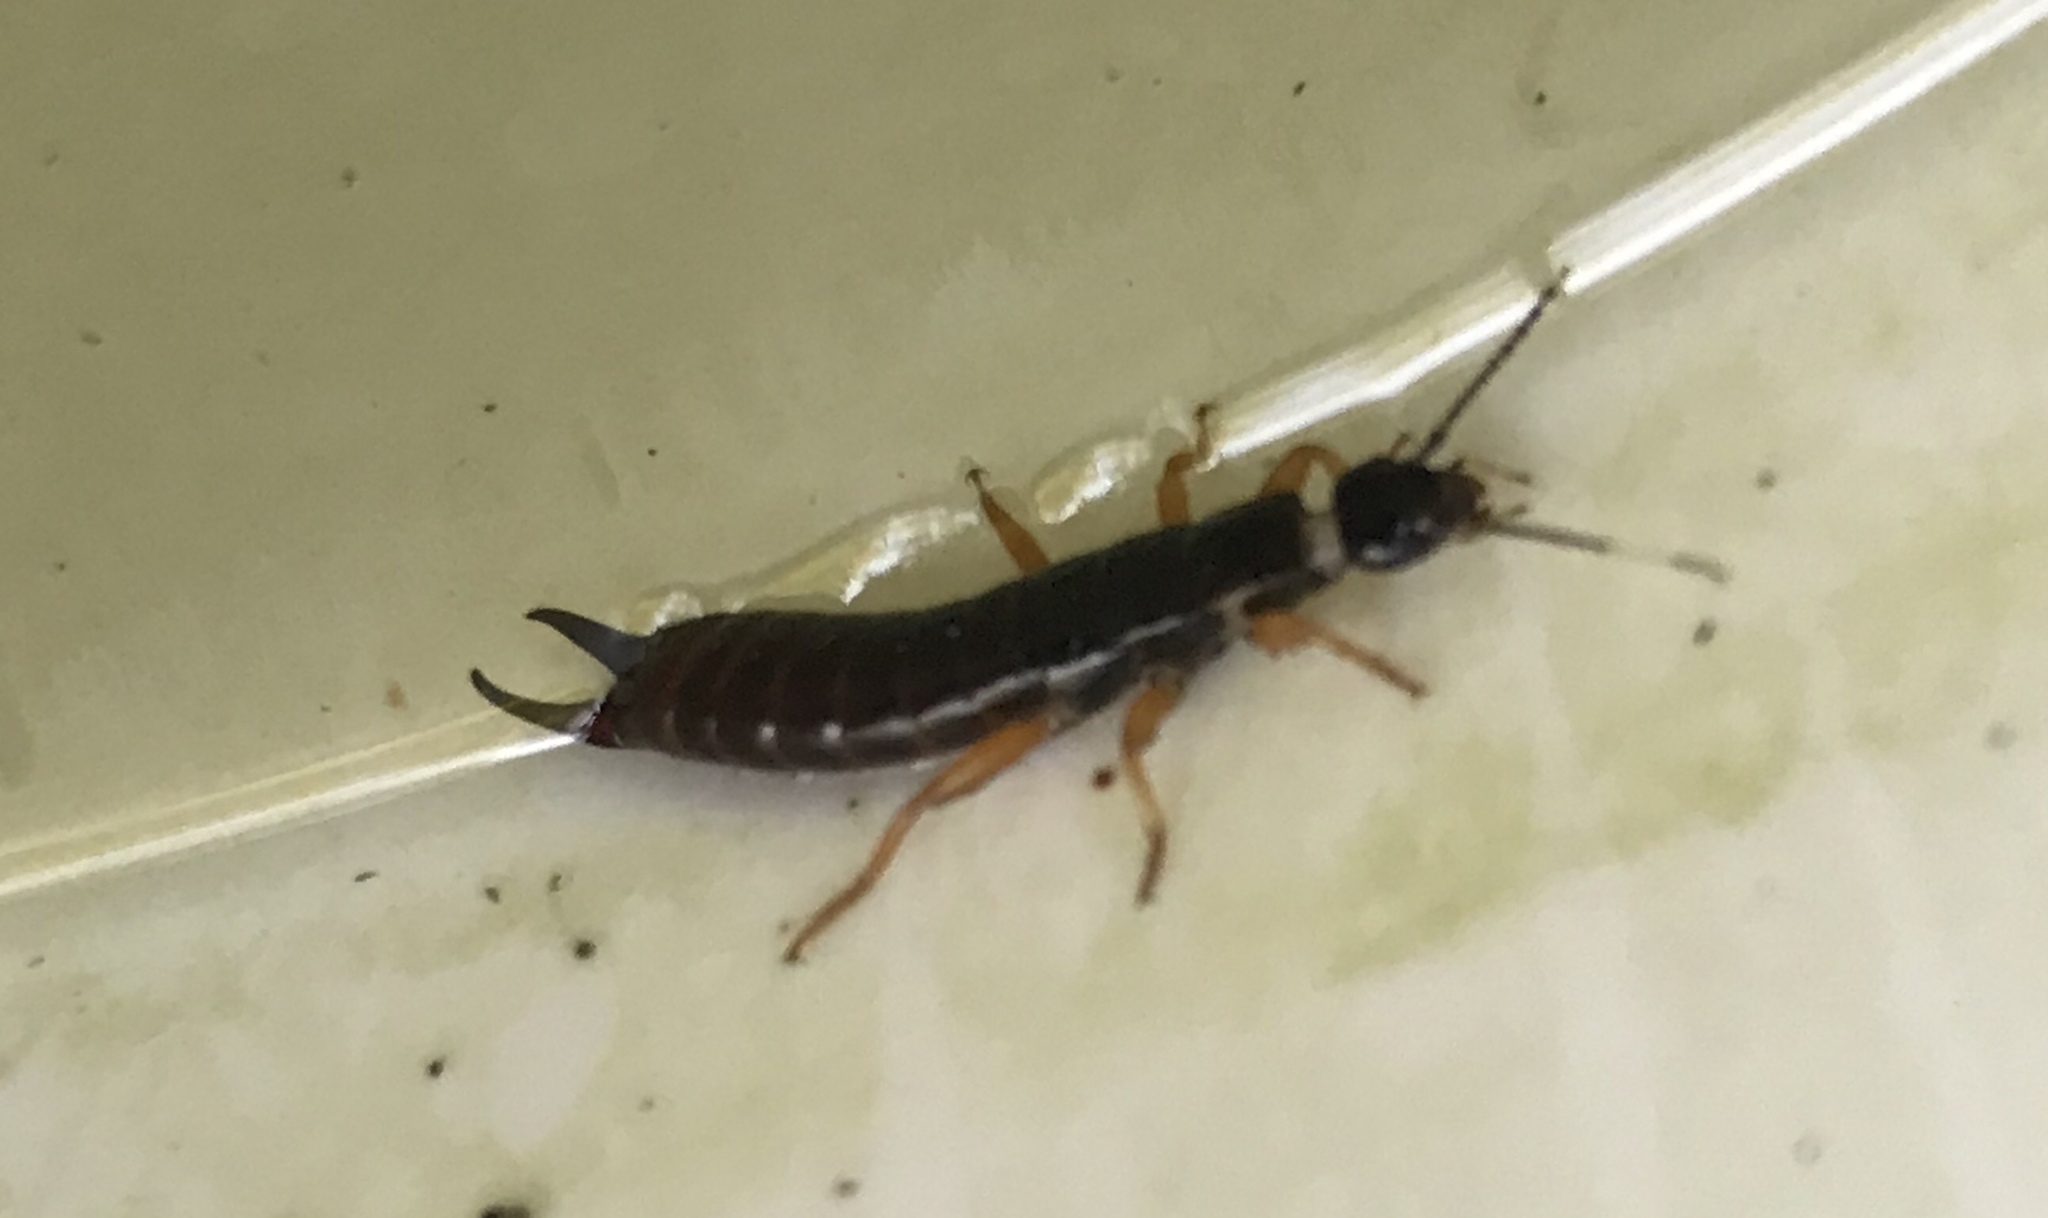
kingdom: Animalia
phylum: Arthropoda
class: Insecta
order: Dermaptera
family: Anisolabididae
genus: Euborellia
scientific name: Euborellia arcanum
